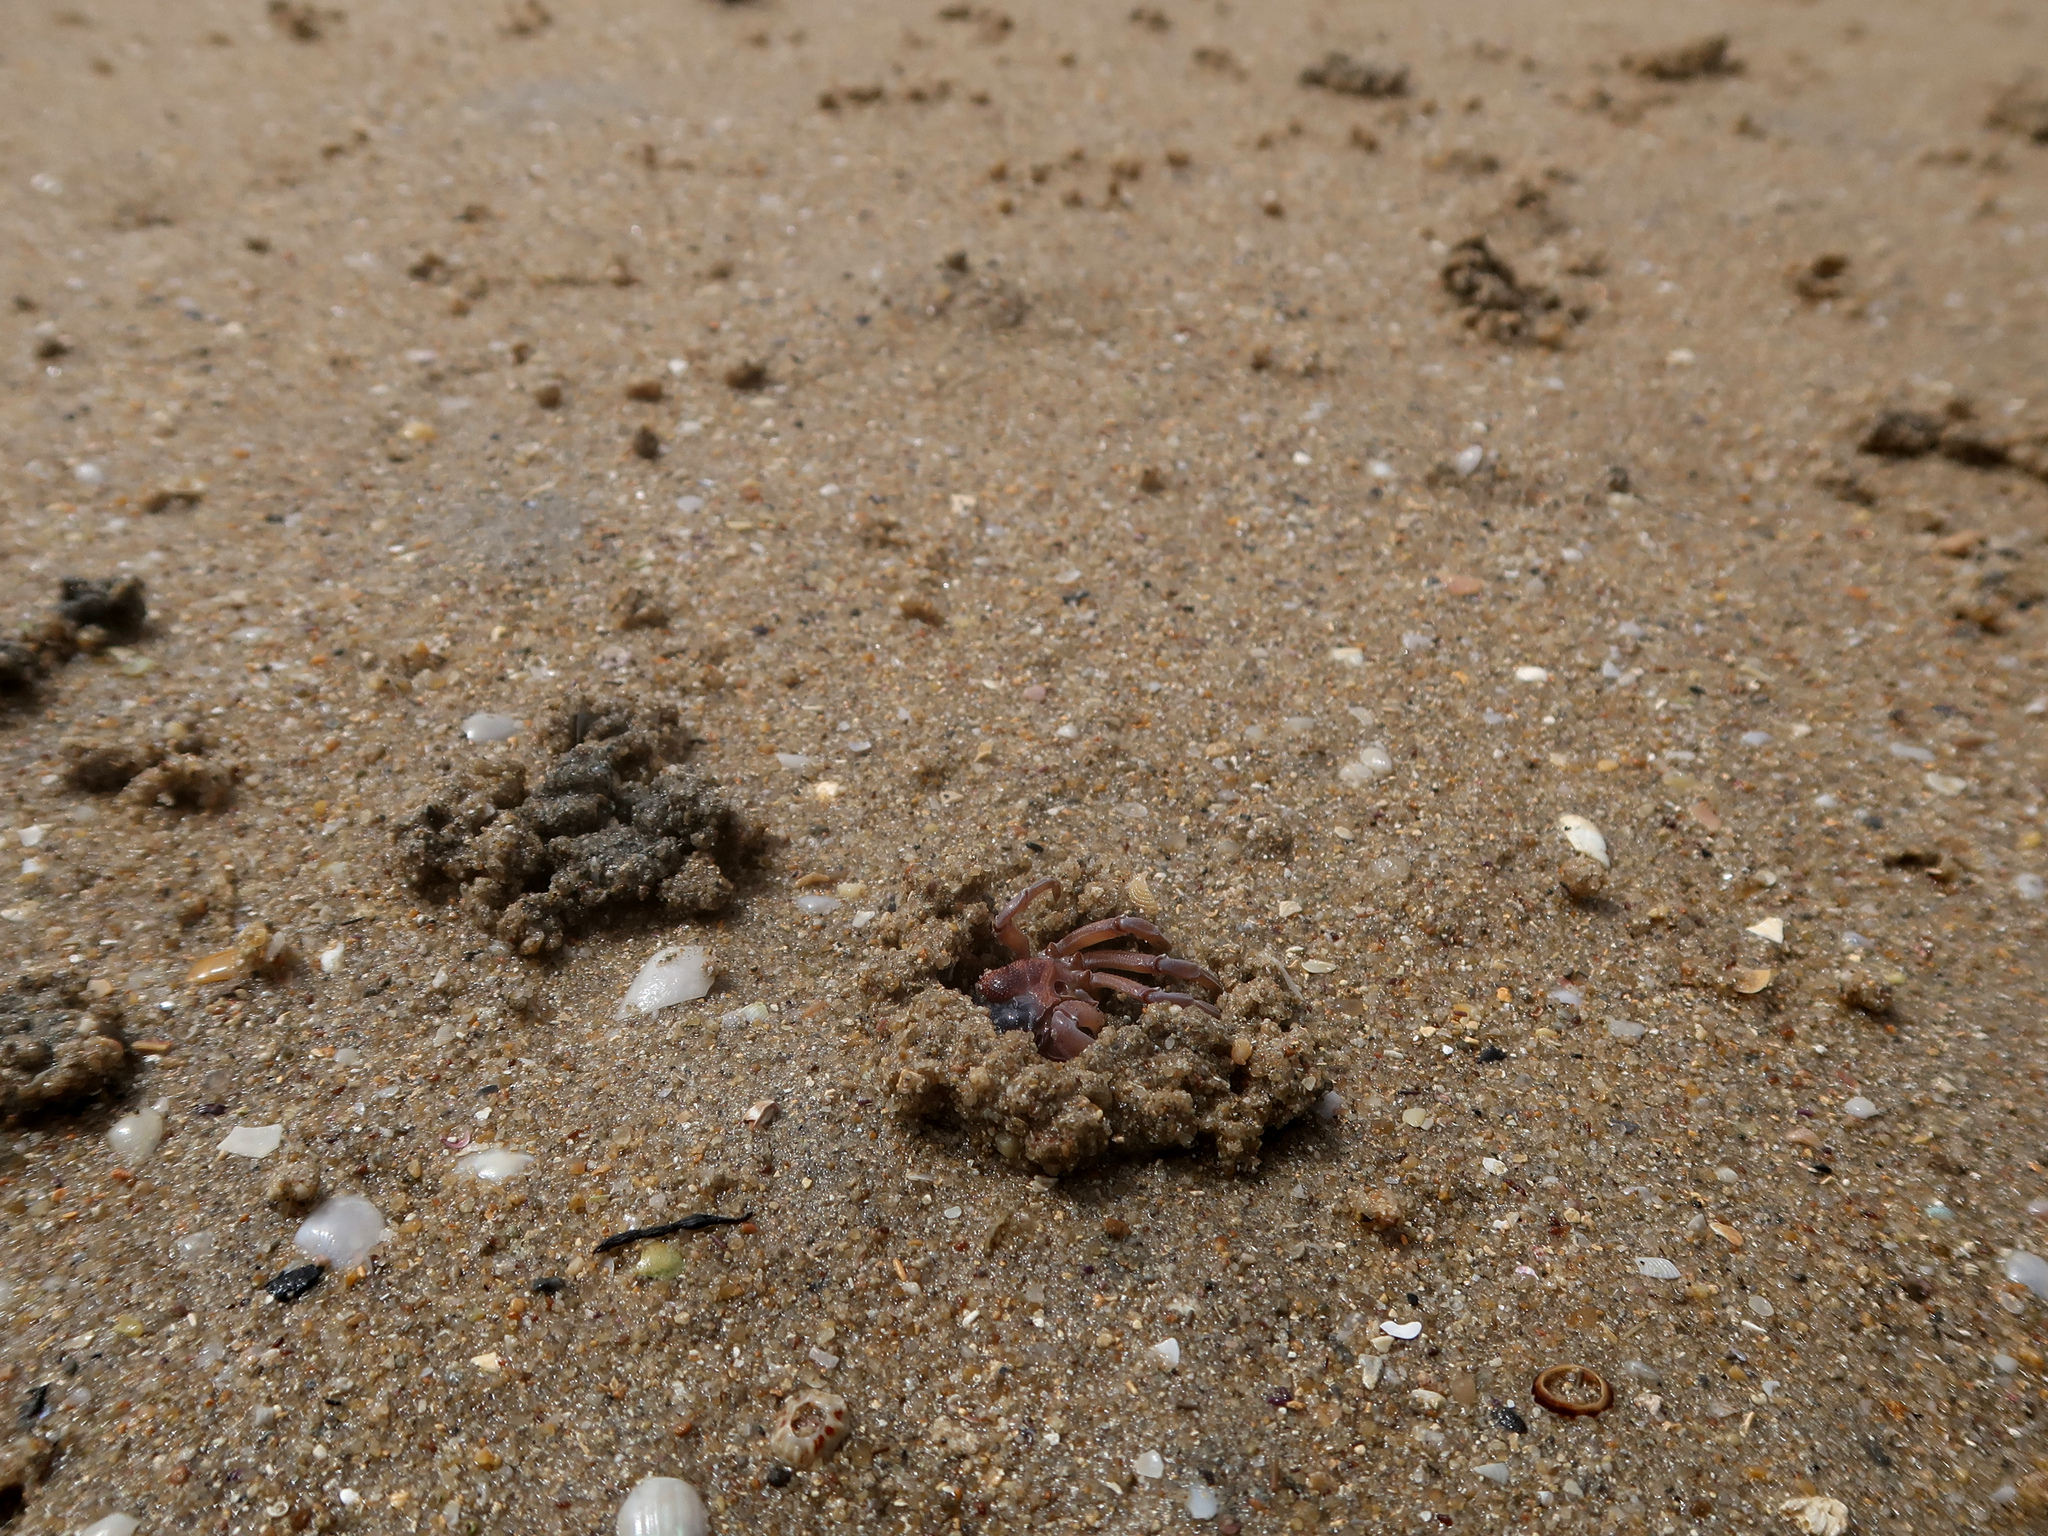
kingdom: Animalia
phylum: Arthropoda
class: Malacostraca
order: Decapoda
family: Mictyridae
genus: Mictyris
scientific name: Mictyris platycheles
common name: Dark blue soldier crab
